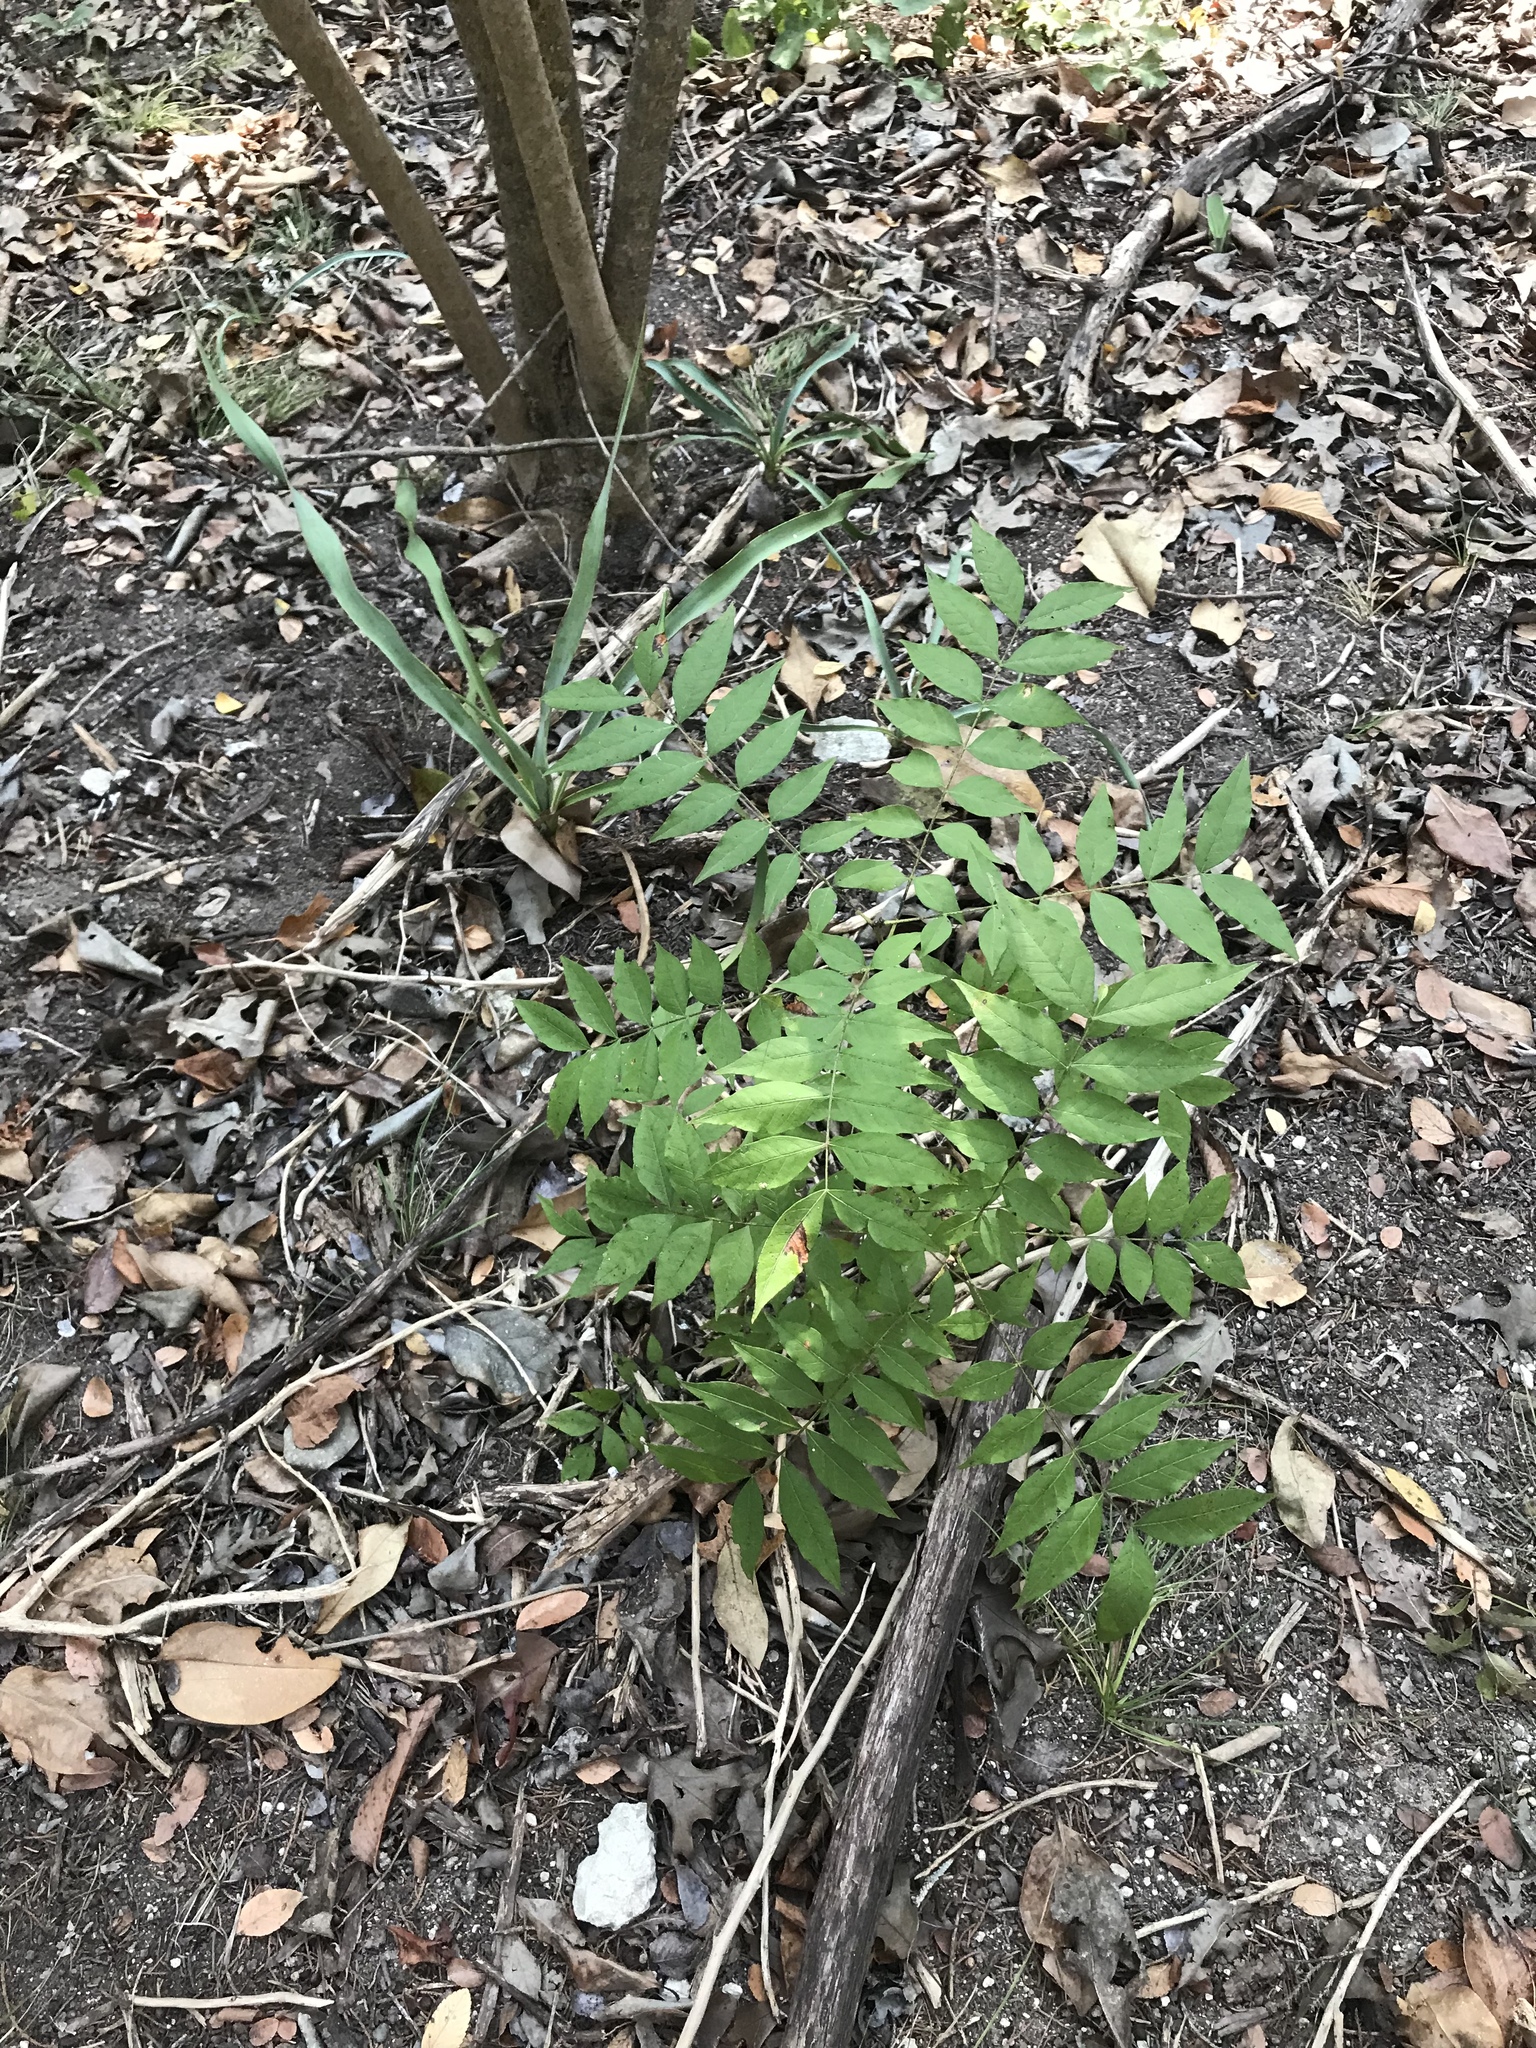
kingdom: Plantae
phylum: Tracheophyta
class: Magnoliopsida
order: Sapindales
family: Anacardiaceae
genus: Pistacia
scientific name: Pistacia chinensis
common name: Chinese pistache
